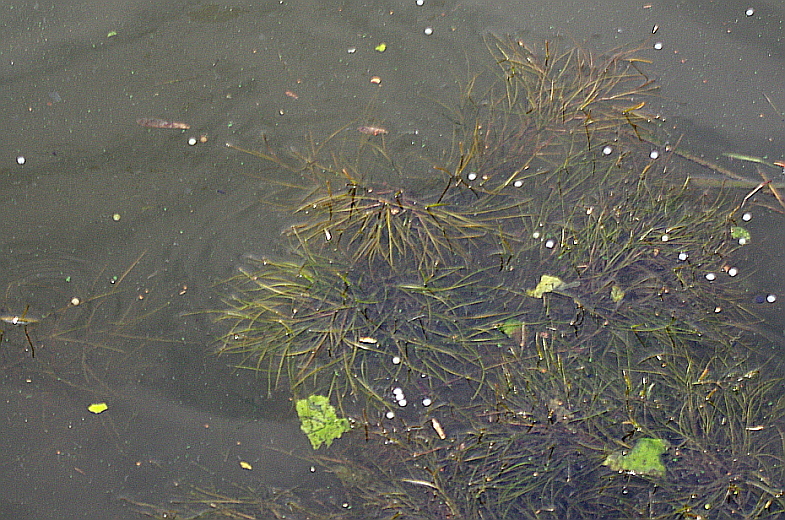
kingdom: Plantae
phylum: Tracheophyta
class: Liliopsida
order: Alismatales
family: Potamogetonaceae
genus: Stuckenia
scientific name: Stuckenia pectinata
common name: Sago pondweed
